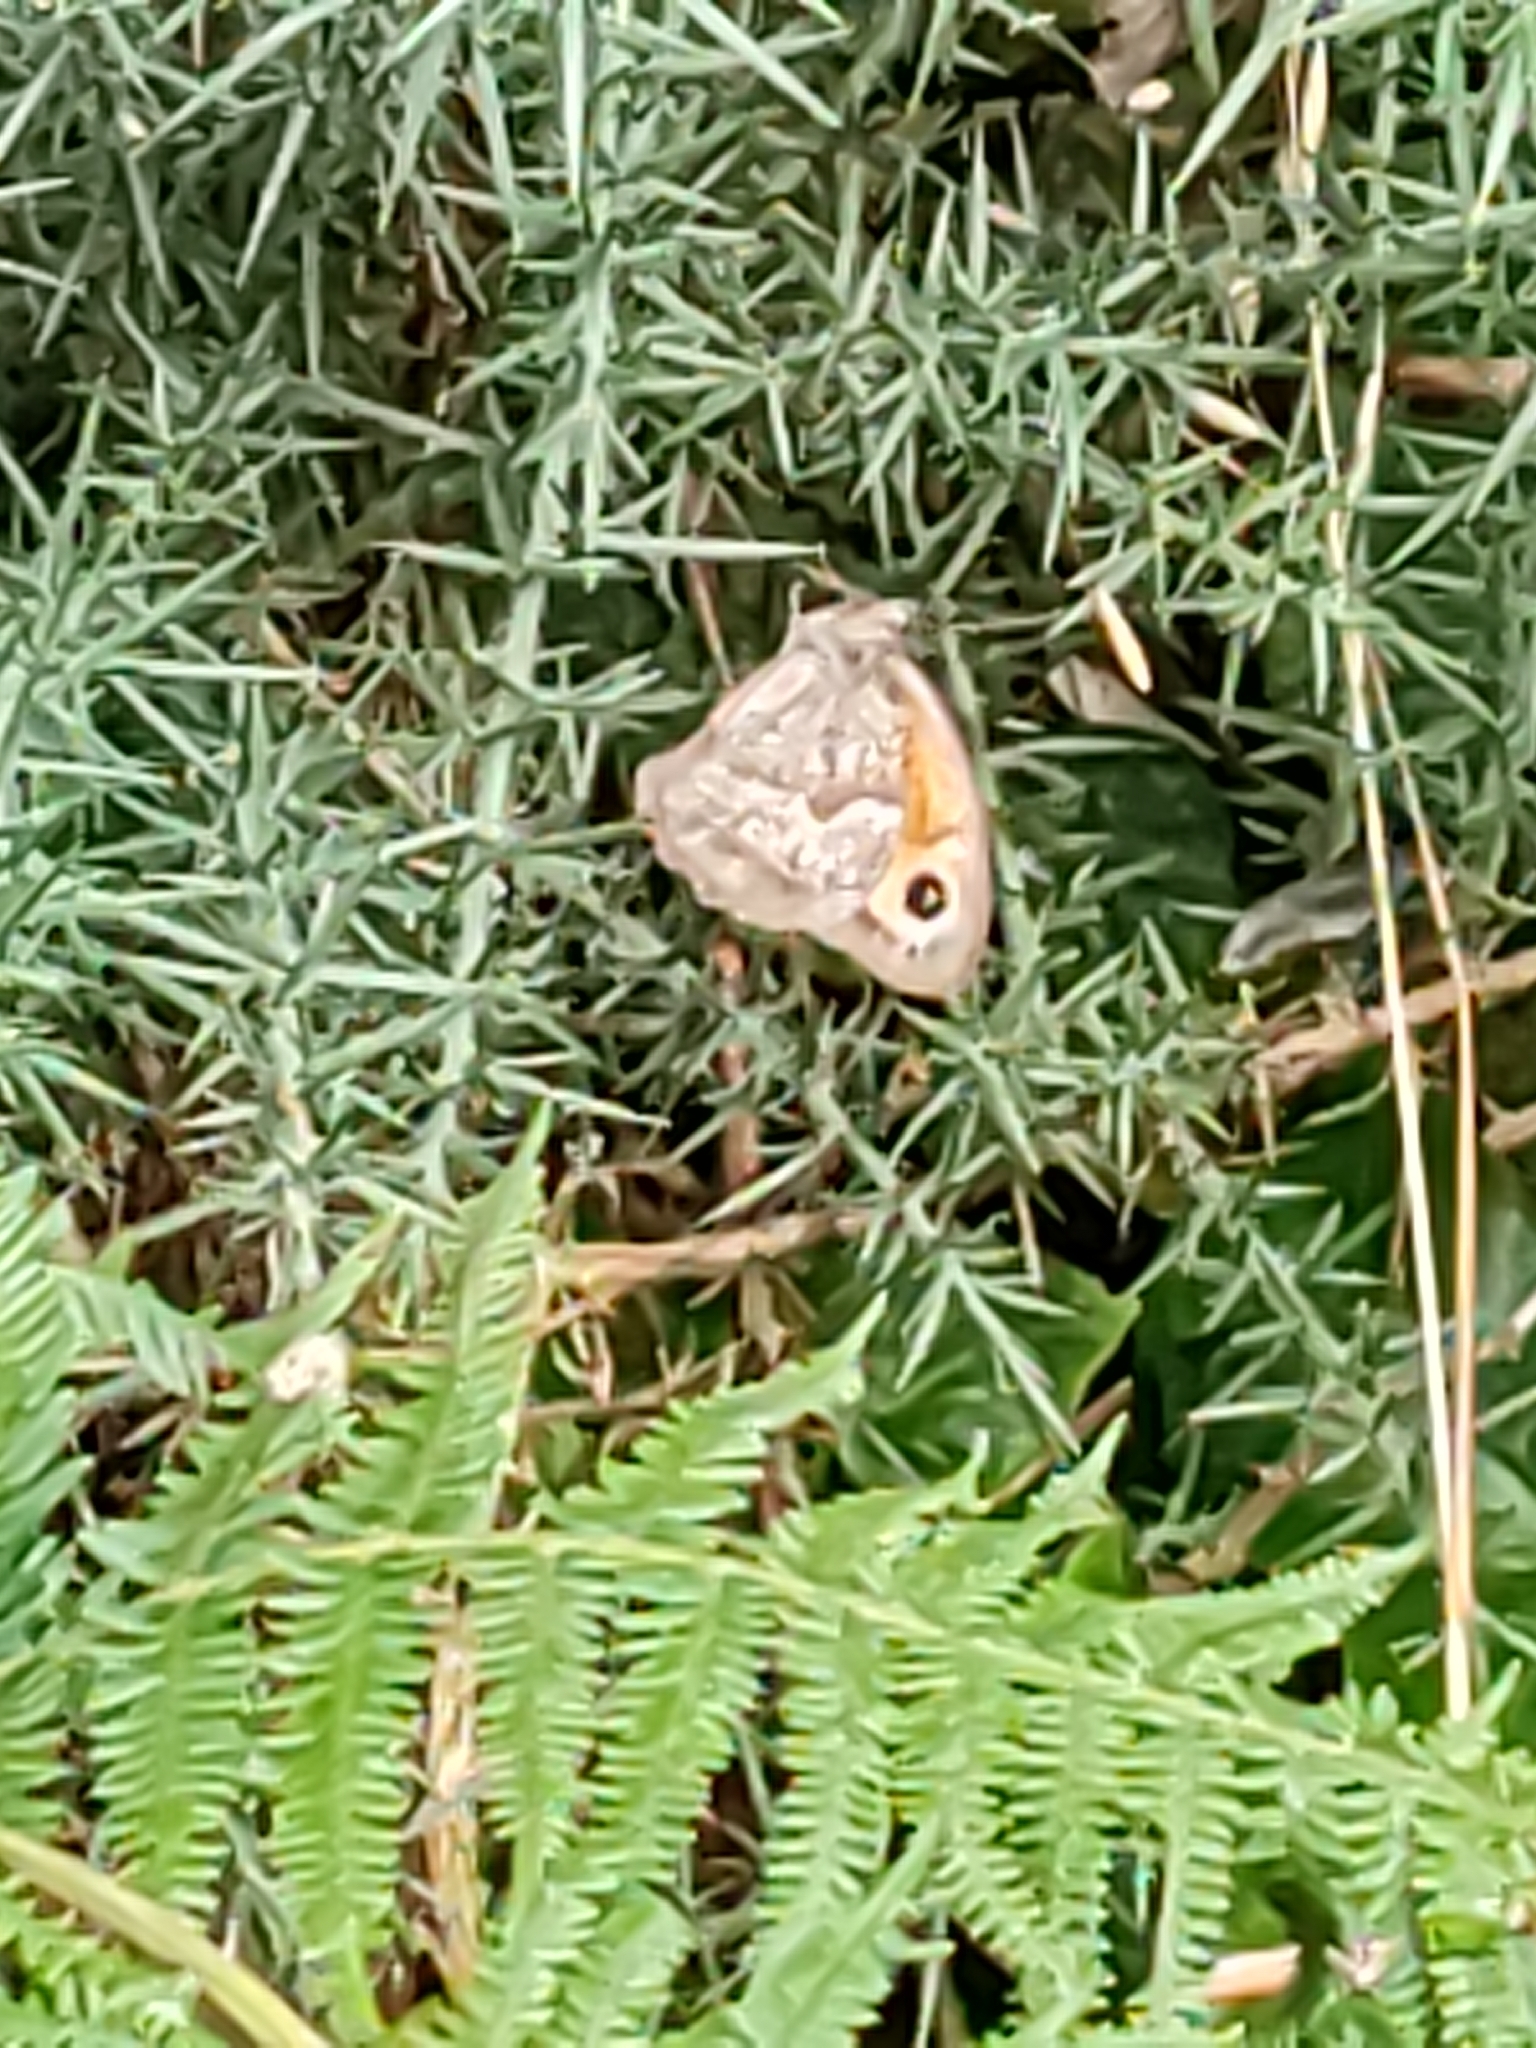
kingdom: Animalia
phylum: Arthropoda
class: Insecta
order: Lepidoptera
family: Nymphalidae
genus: Maniola
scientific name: Maniola jurtina
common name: Meadow brown
